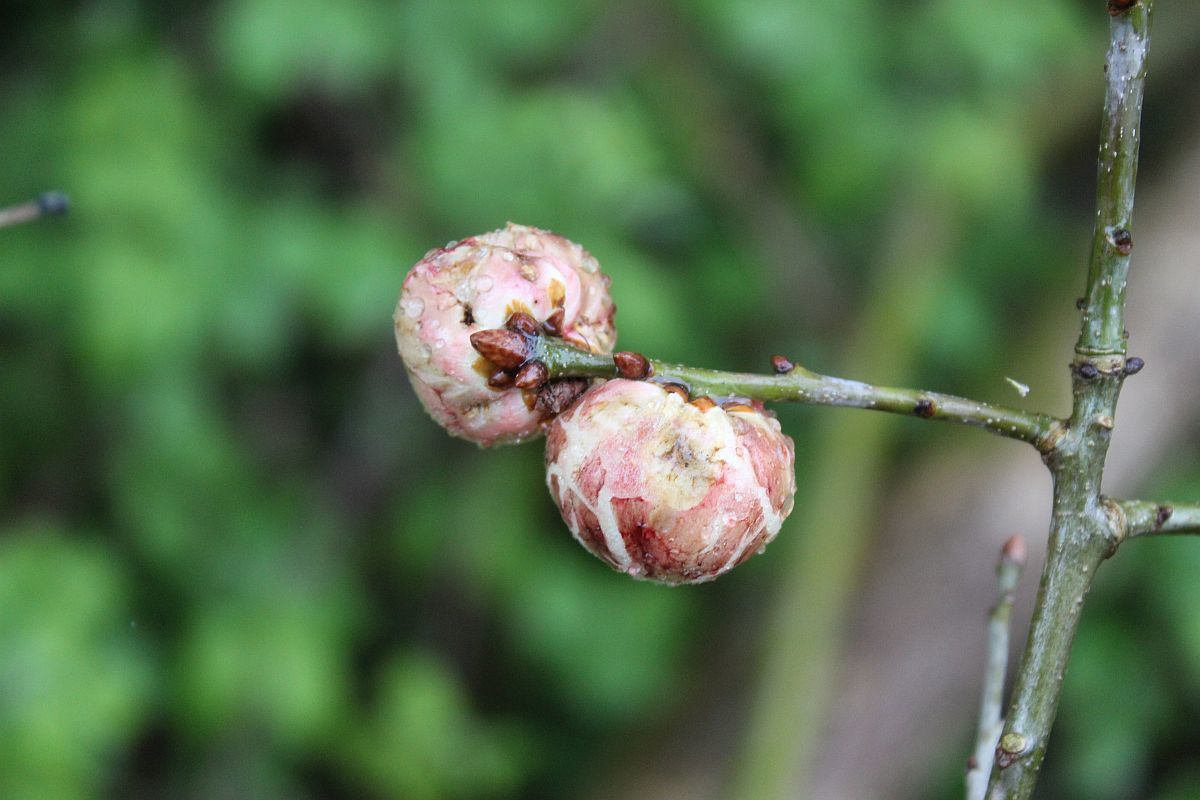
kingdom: Animalia
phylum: Arthropoda
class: Insecta
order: Hymenoptera
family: Cynipidae
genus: Biorhiza
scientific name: Biorhiza pallida
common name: Oak apple
